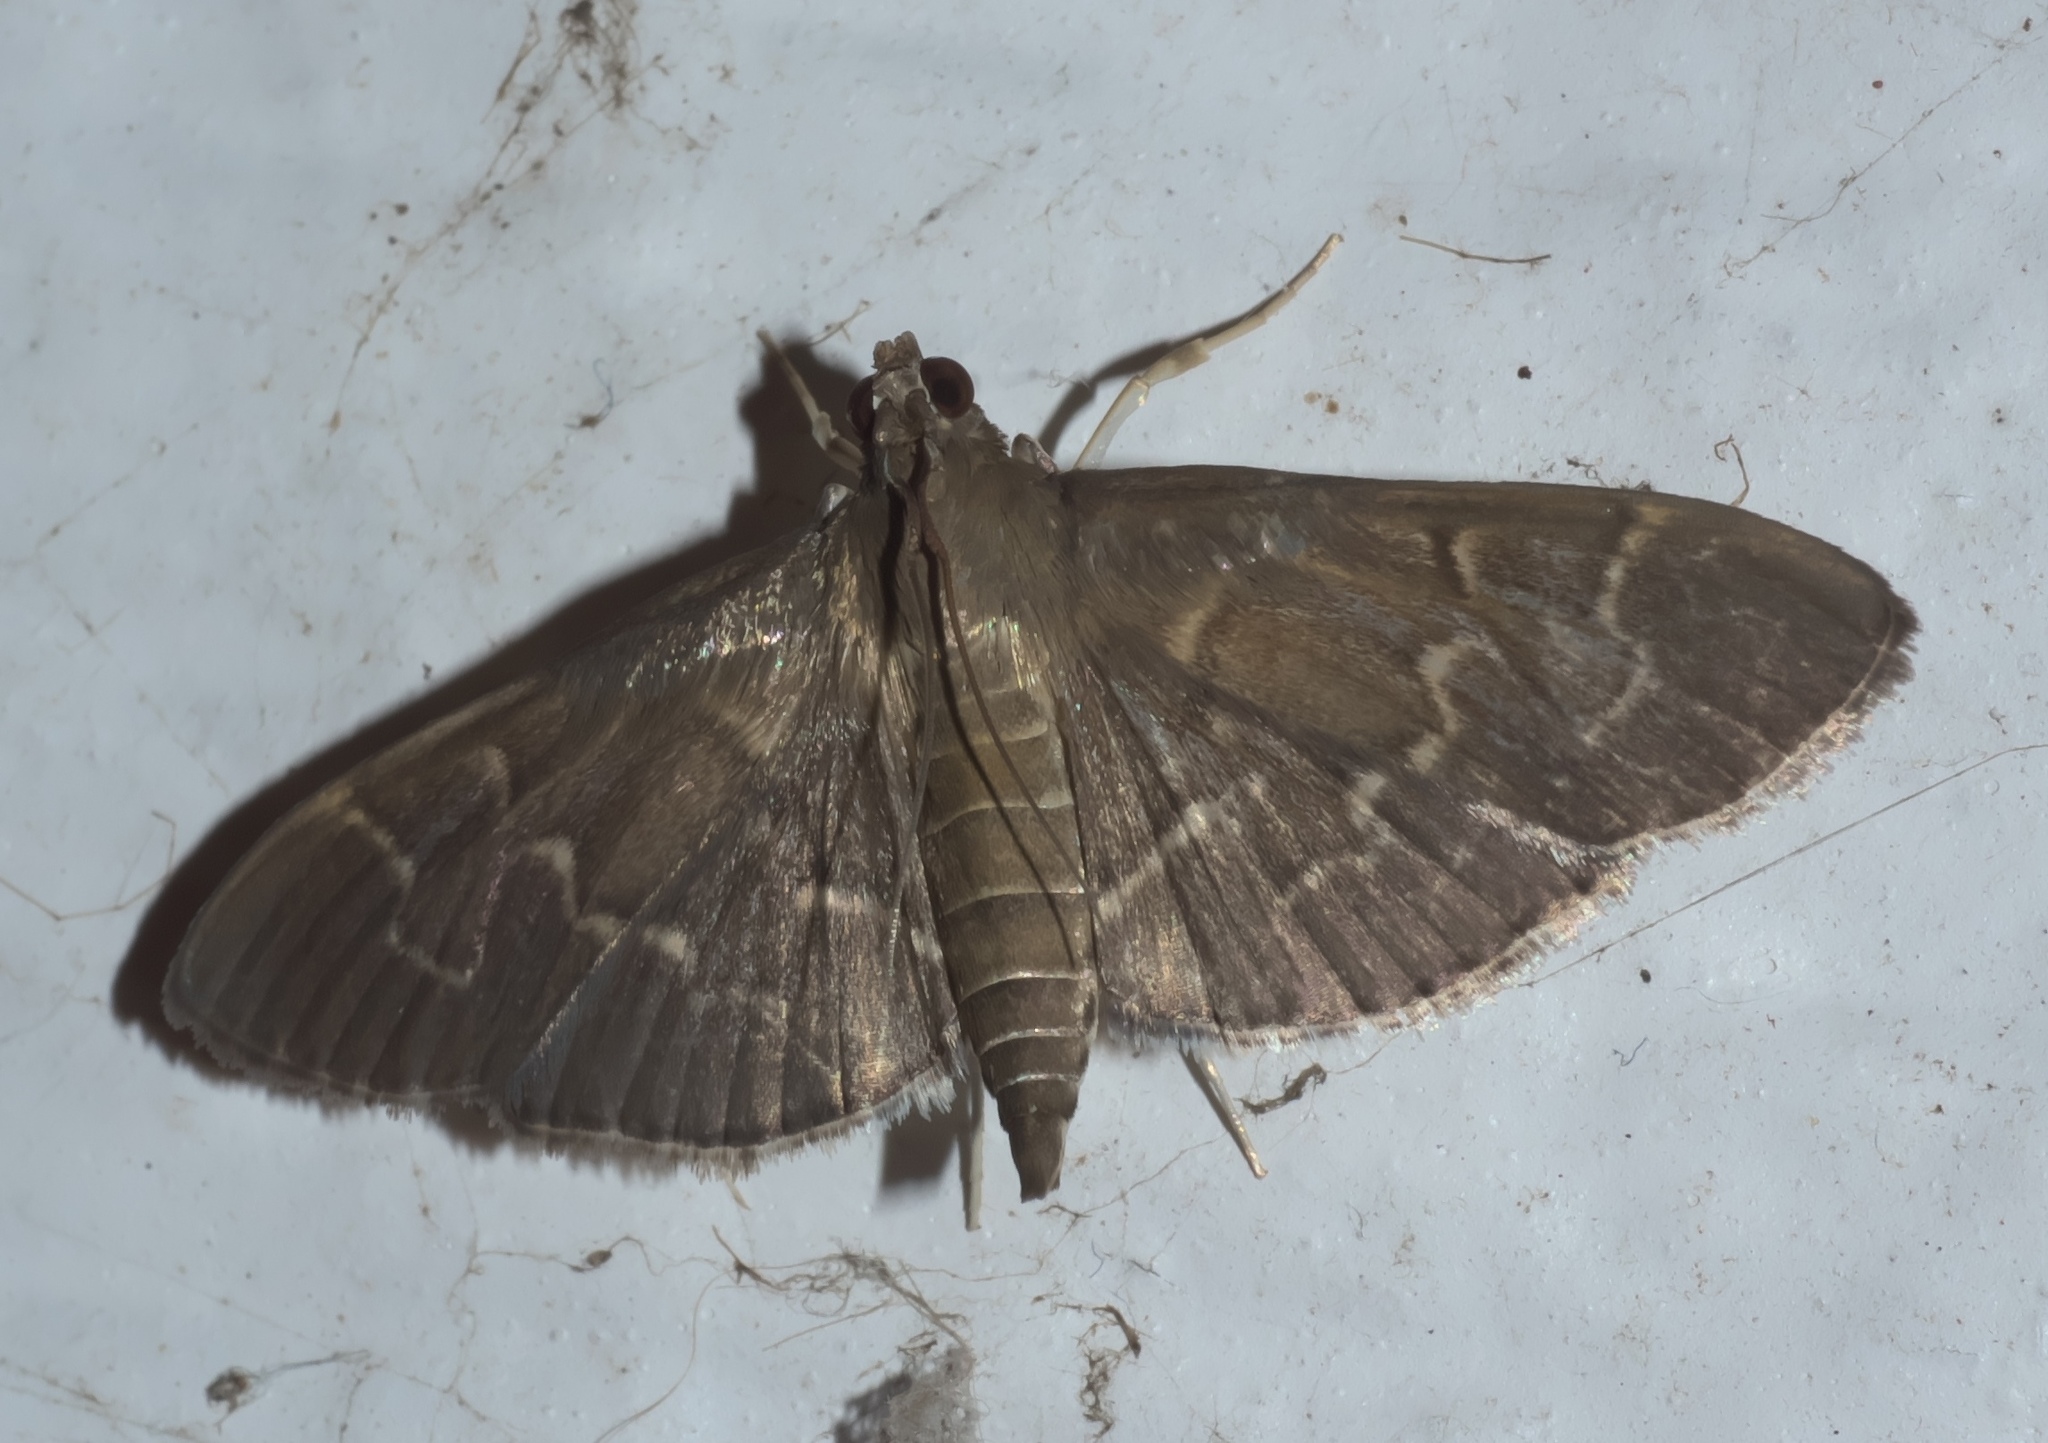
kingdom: Animalia
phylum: Arthropoda
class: Insecta
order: Lepidoptera
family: Crambidae
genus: Pilocrocis
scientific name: Pilocrocis ramentalis
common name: Scraped pilocrocis
